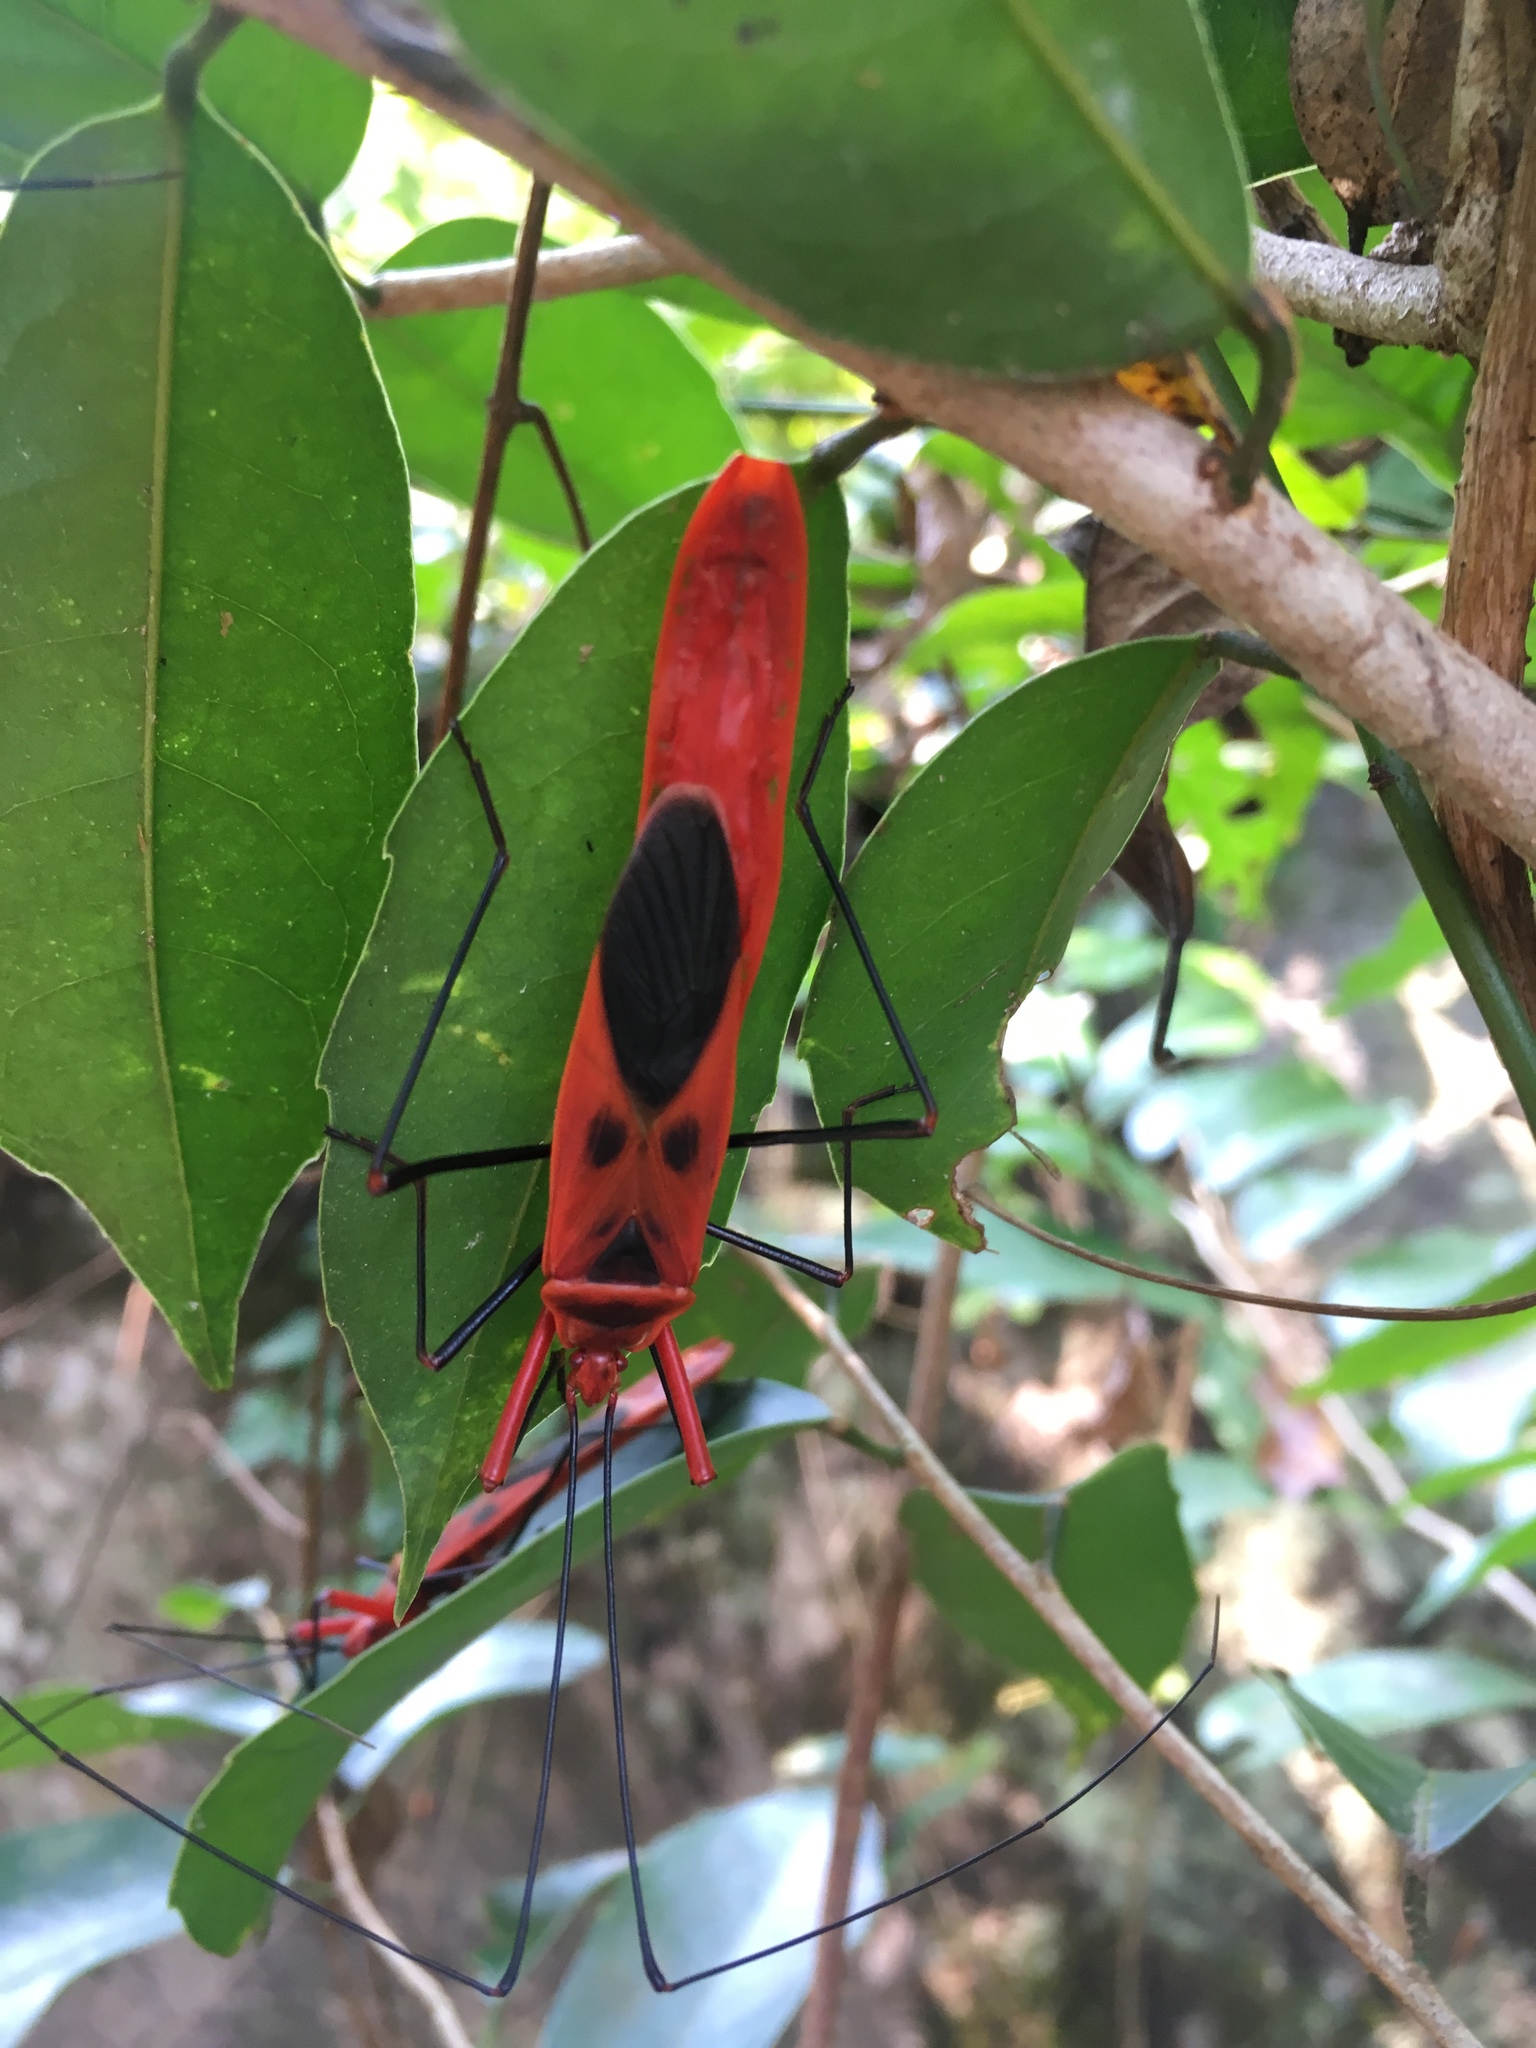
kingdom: Animalia
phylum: Arthropoda
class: Insecta
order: Hemiptera
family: Largidae
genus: Macrocheraia
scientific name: Macrocheraia grandis
